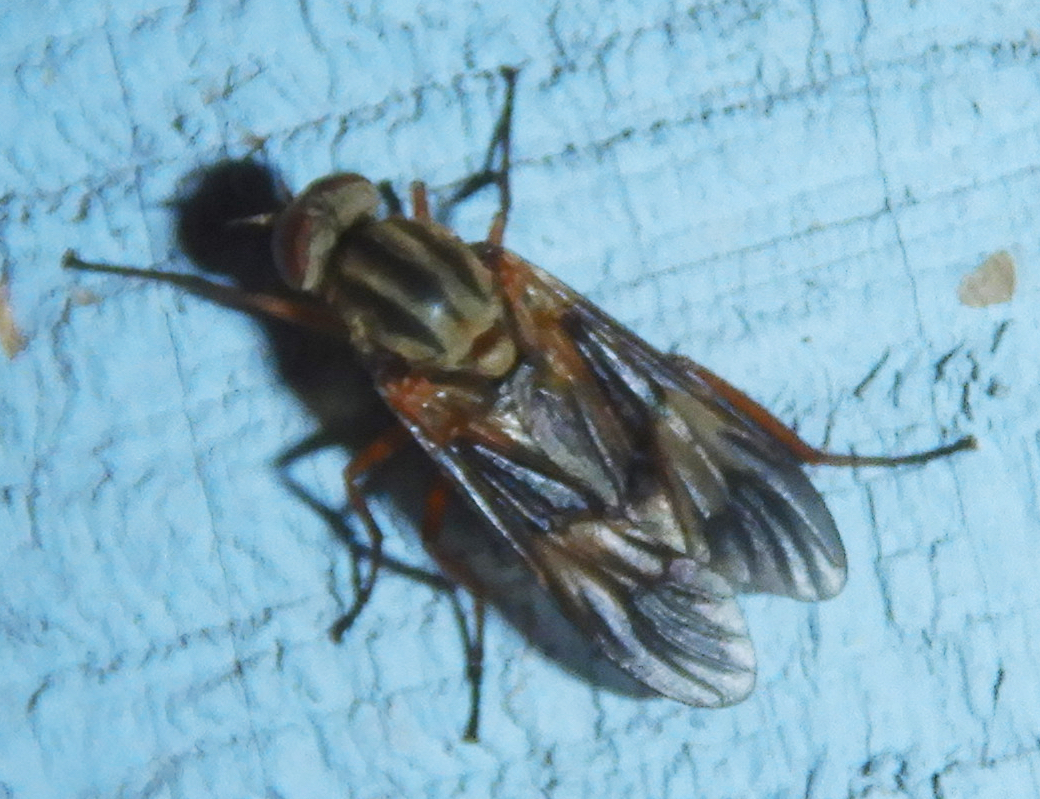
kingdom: Animalia
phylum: Arthropoda
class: Insecta
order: Diptera
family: Xylophagidae
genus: Arthropeas
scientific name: Arthropeas americana
